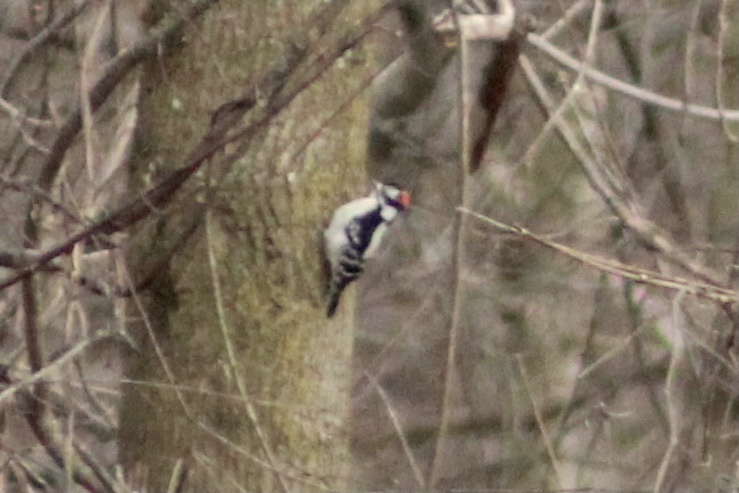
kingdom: Animalia
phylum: Chordata
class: Aves
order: Piciformes
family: Picidae
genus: Dryobates
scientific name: Dryobates pubescens
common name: Downy woodpecker
